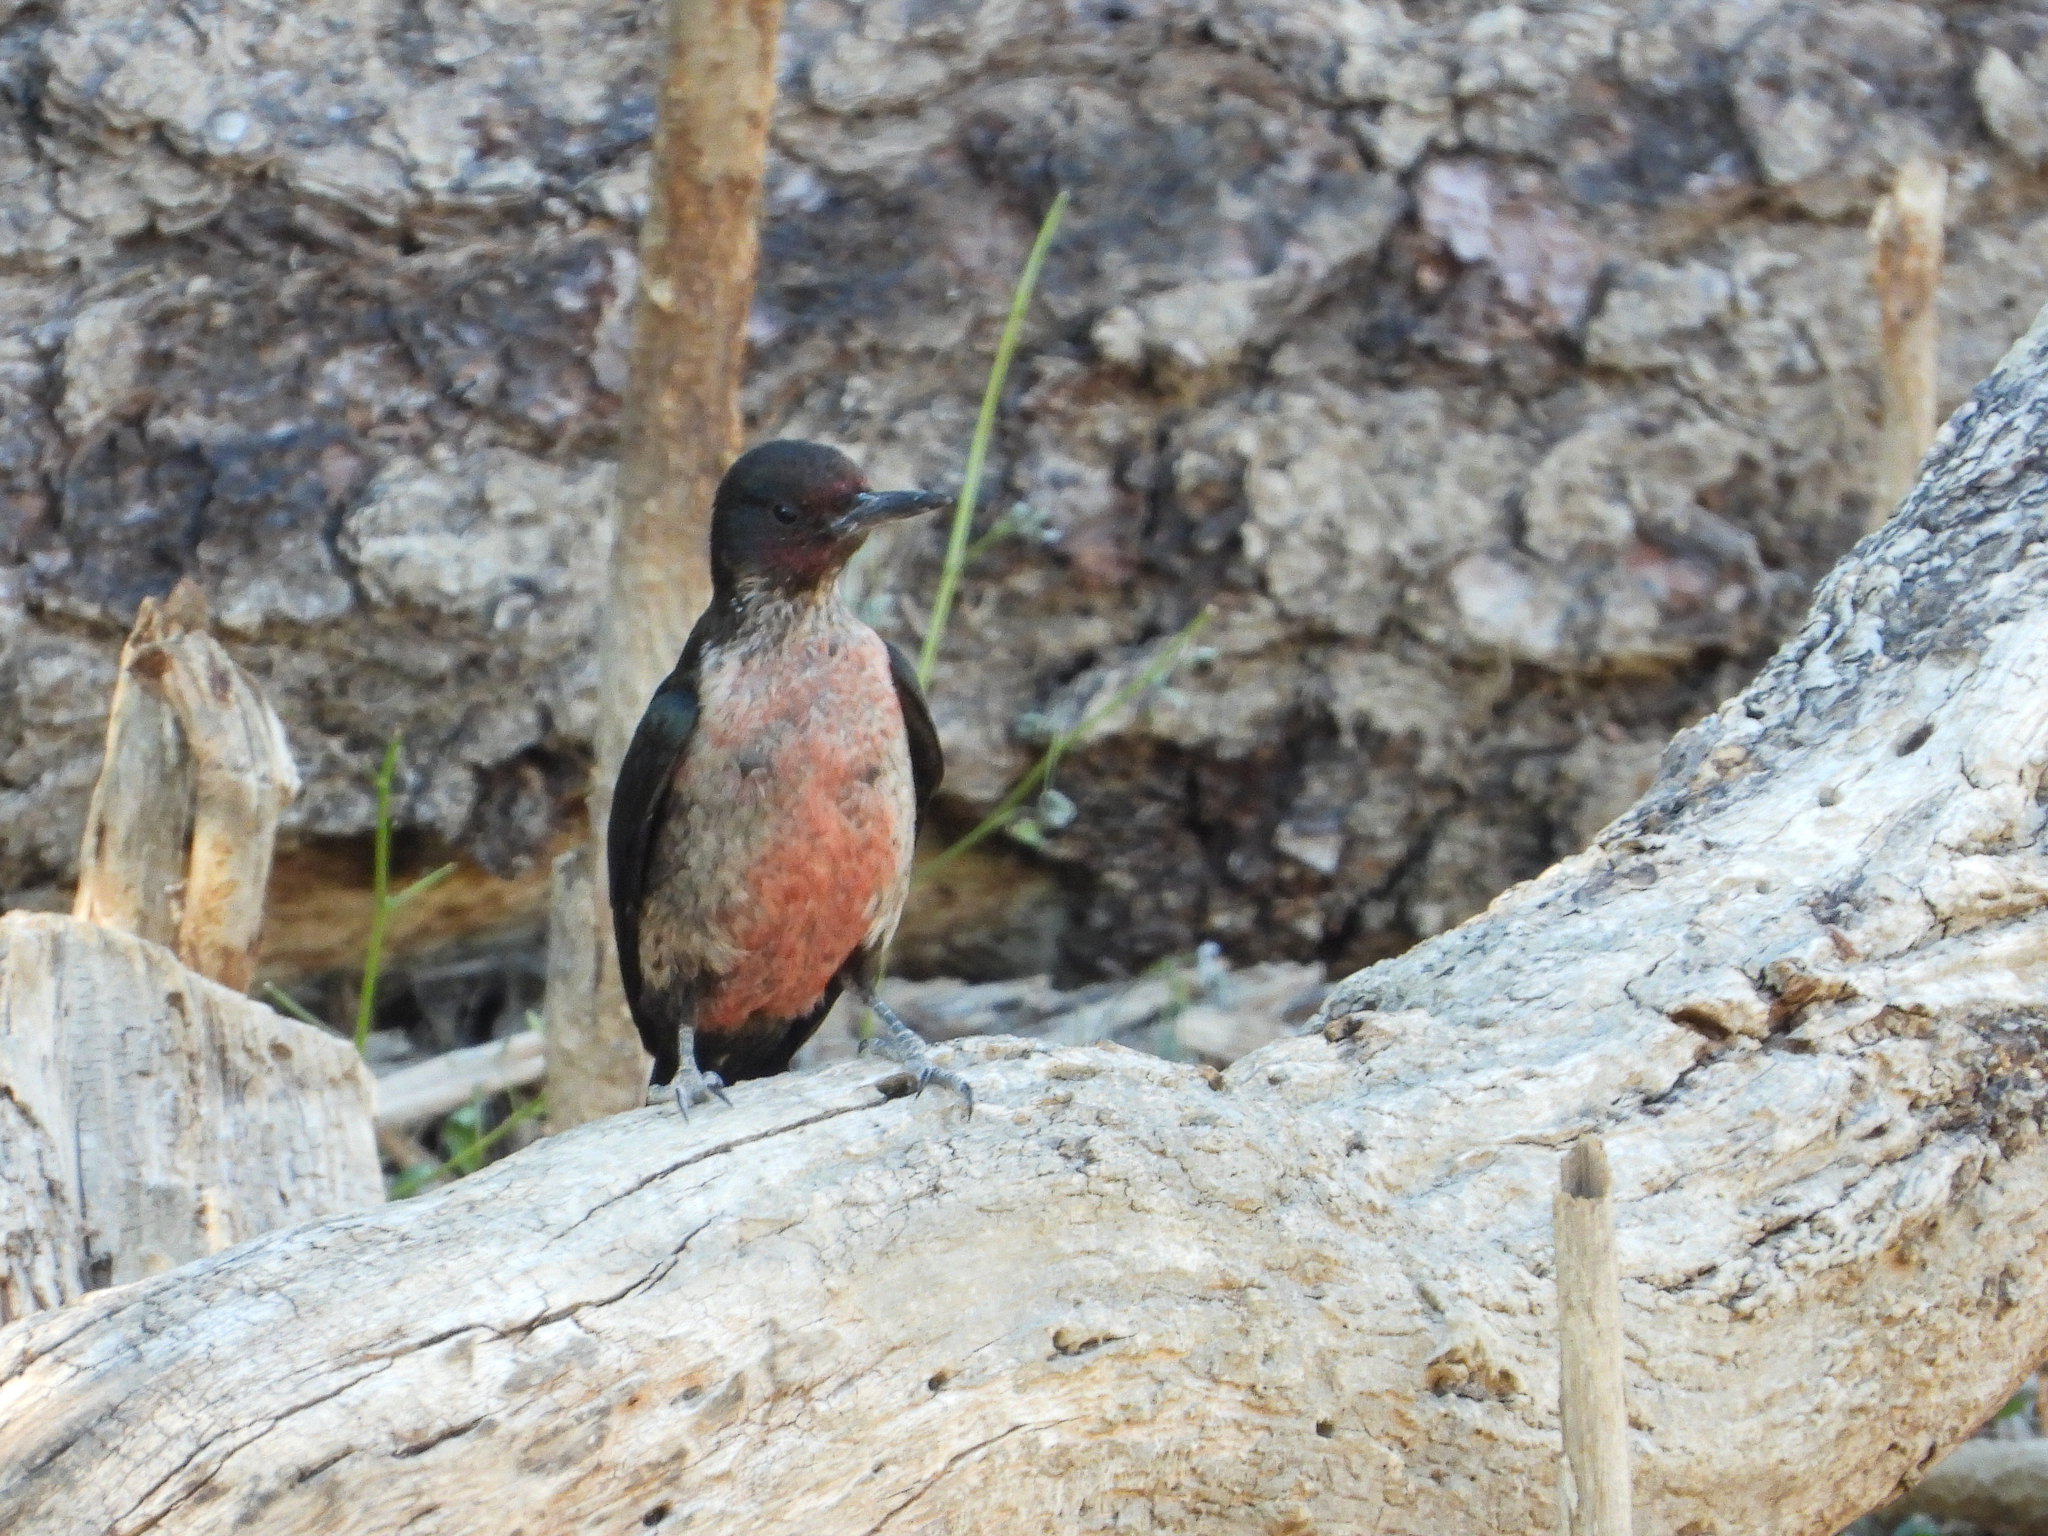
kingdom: Animalia
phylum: Chordata
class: Aves
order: Piciformes
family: Picidae
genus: Melanerpes
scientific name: Melanerpes lewis
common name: Lewis's woodpecker
